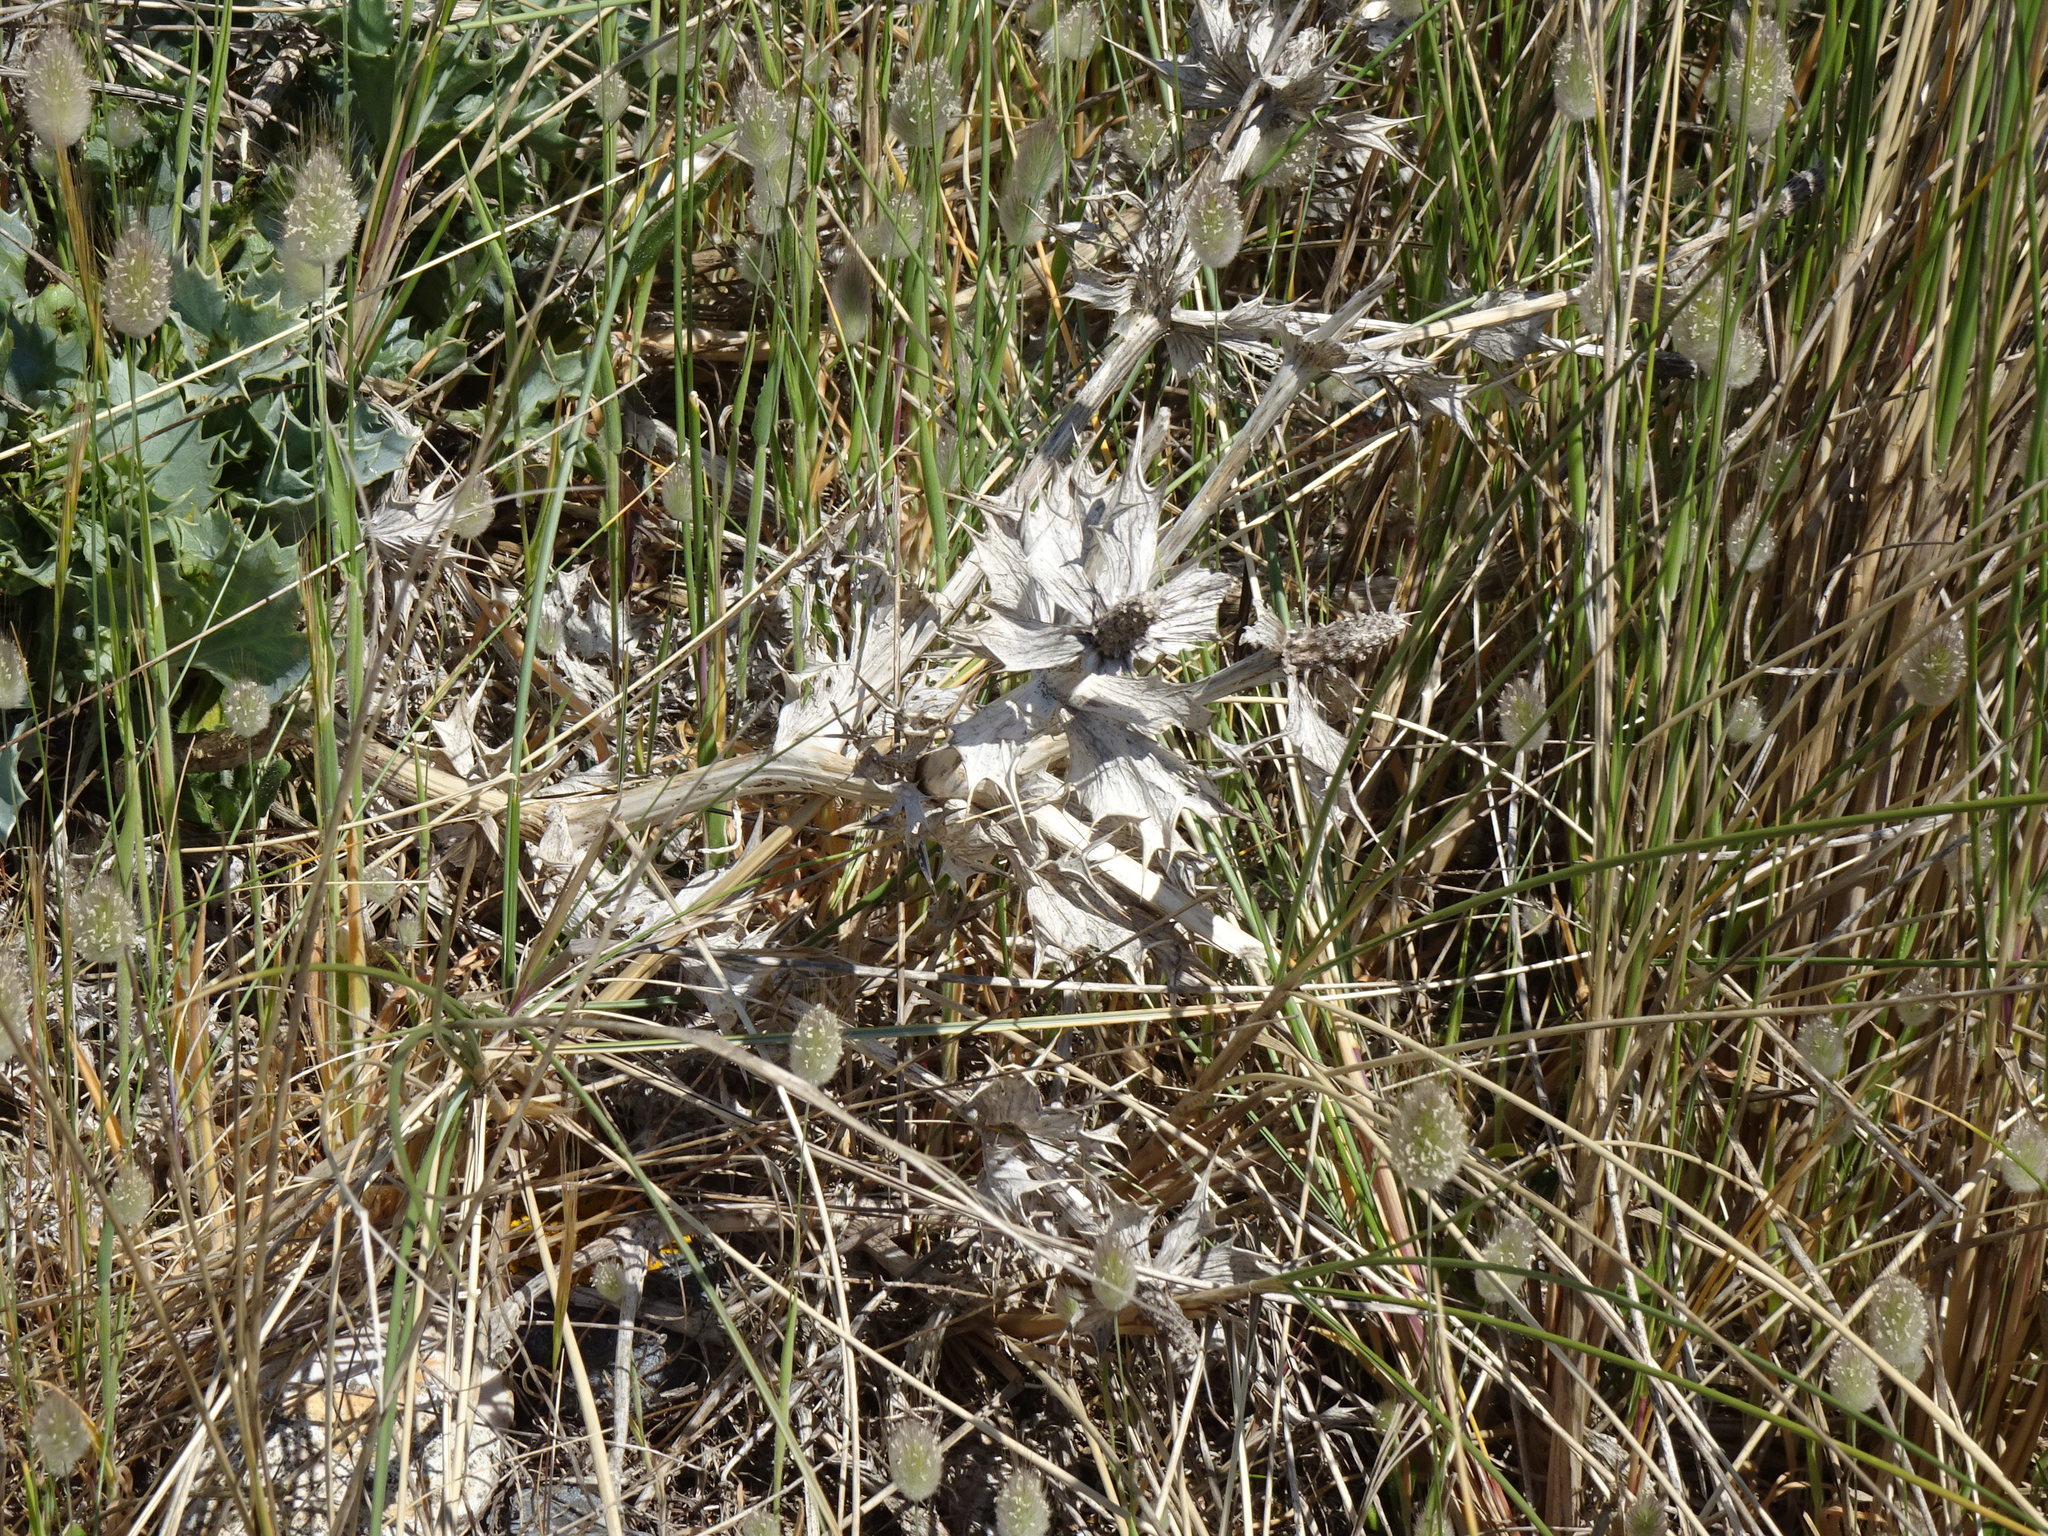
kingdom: Plantae
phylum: Tracheophyta
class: Magnoliopsida
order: Apiales
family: Apiaceae
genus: Eryngium
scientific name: Eryngium maritimum
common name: Sea-holly
